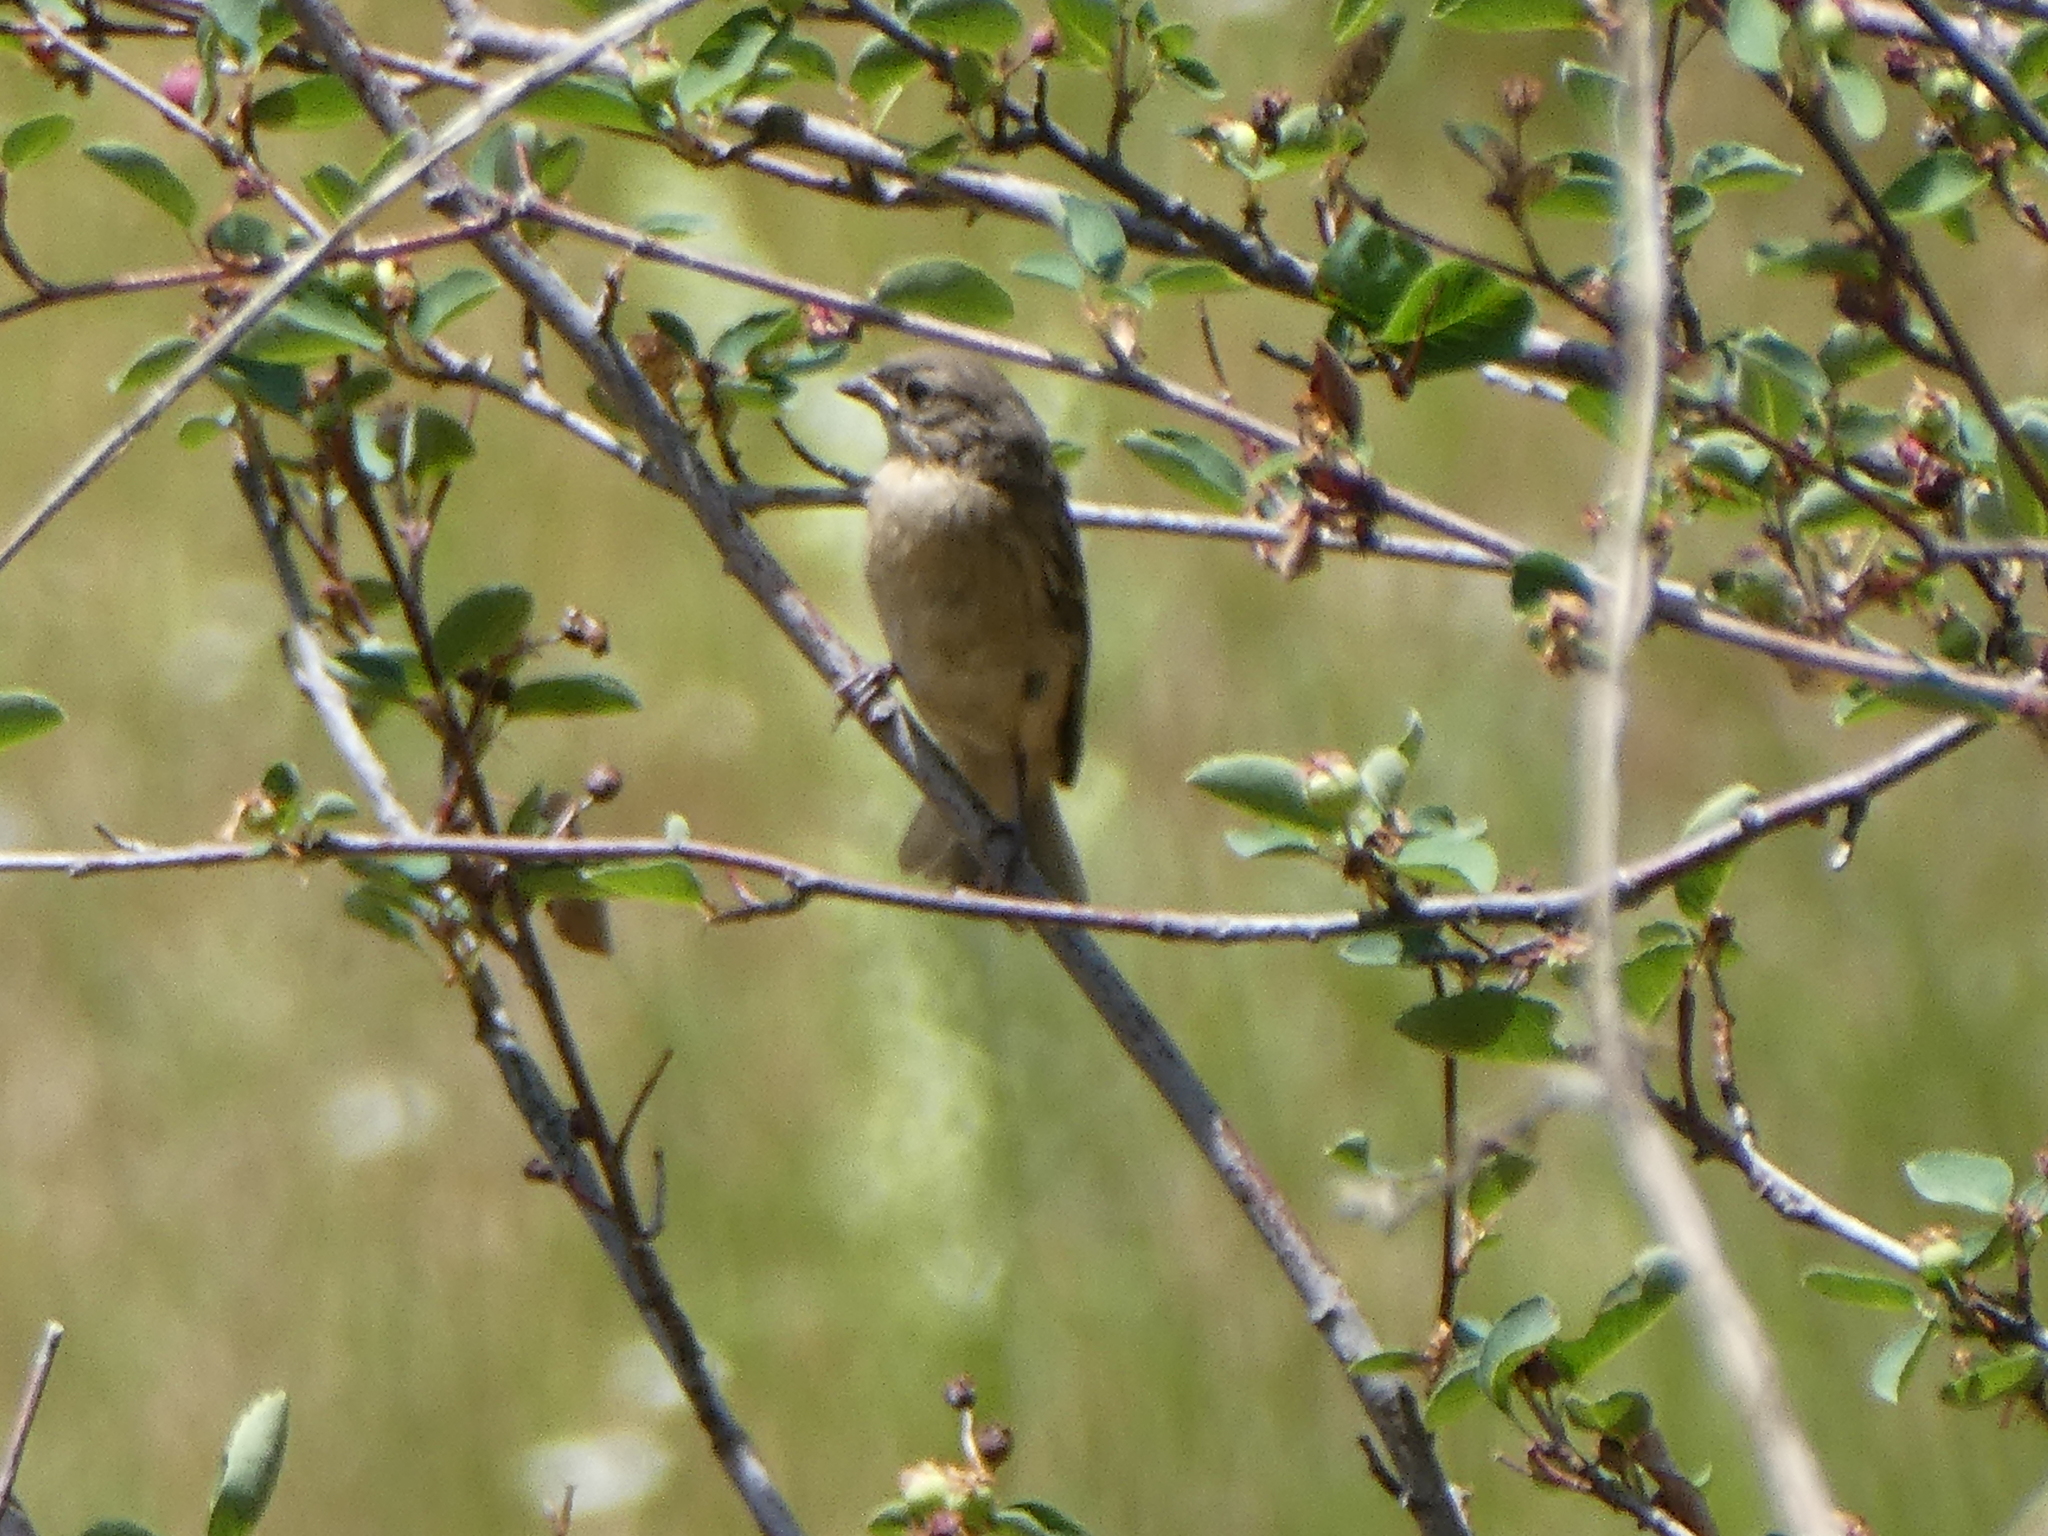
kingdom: Animalia
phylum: Chordata
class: Aves
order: Passeriformes
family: Passeridae
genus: Passer
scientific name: Passer domesticus
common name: House sparrow
